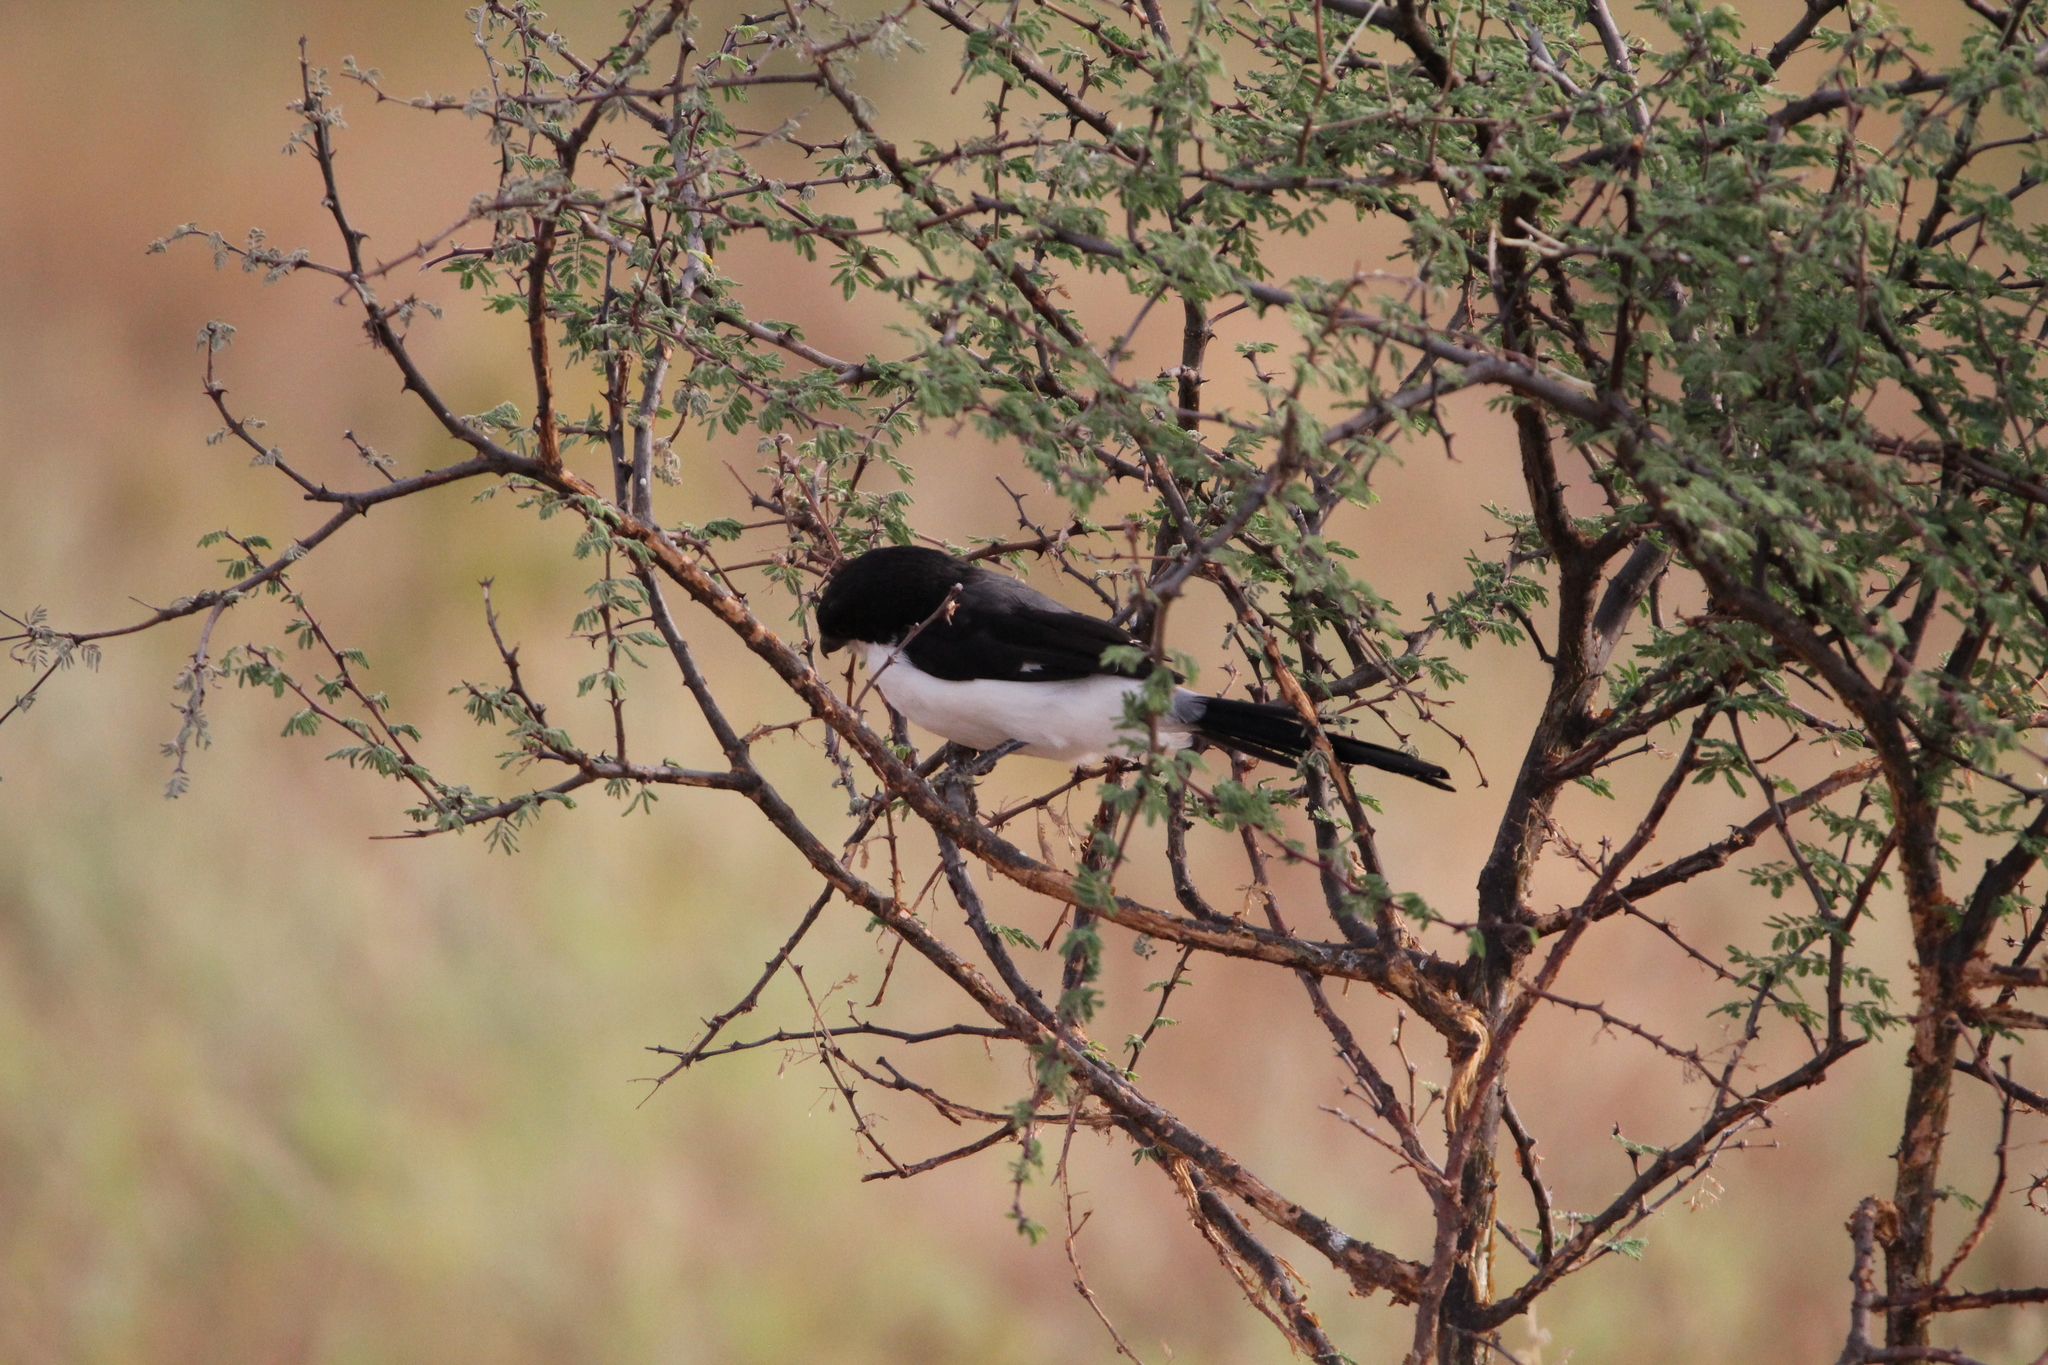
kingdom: Animalia
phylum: Chordata
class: Aves
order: Passeriformes
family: Laniidae
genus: Lanius
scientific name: Lanius cabanisi
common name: Long-tailed fiscal
